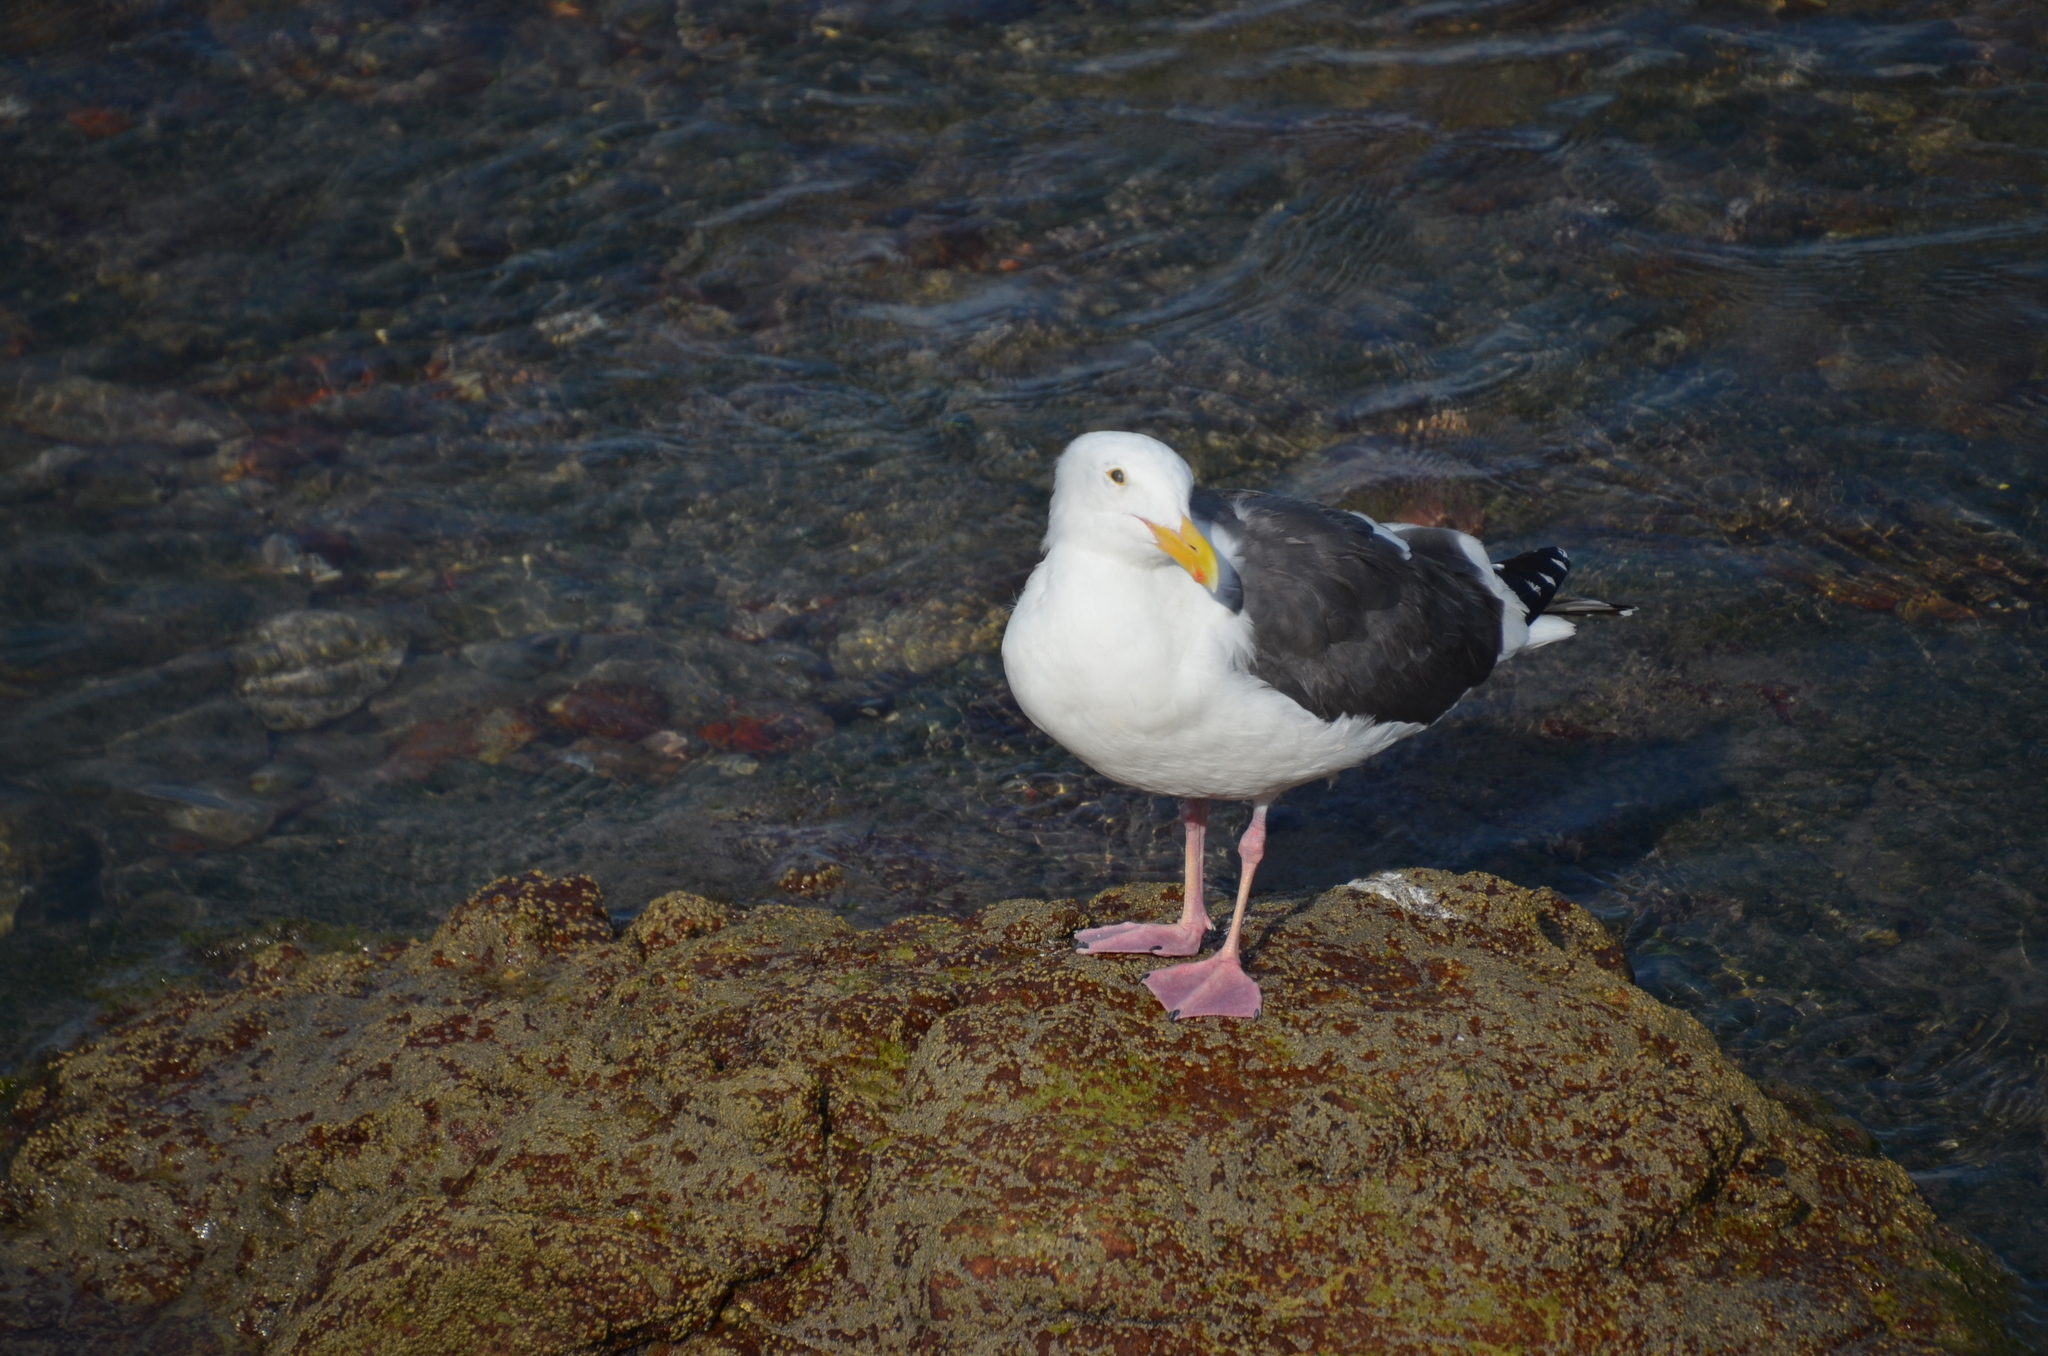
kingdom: Animalia
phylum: Chordata
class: Aves
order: Charadriiformes
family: Laridae
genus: Larus
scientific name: Larus occidentalis
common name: Western gull
